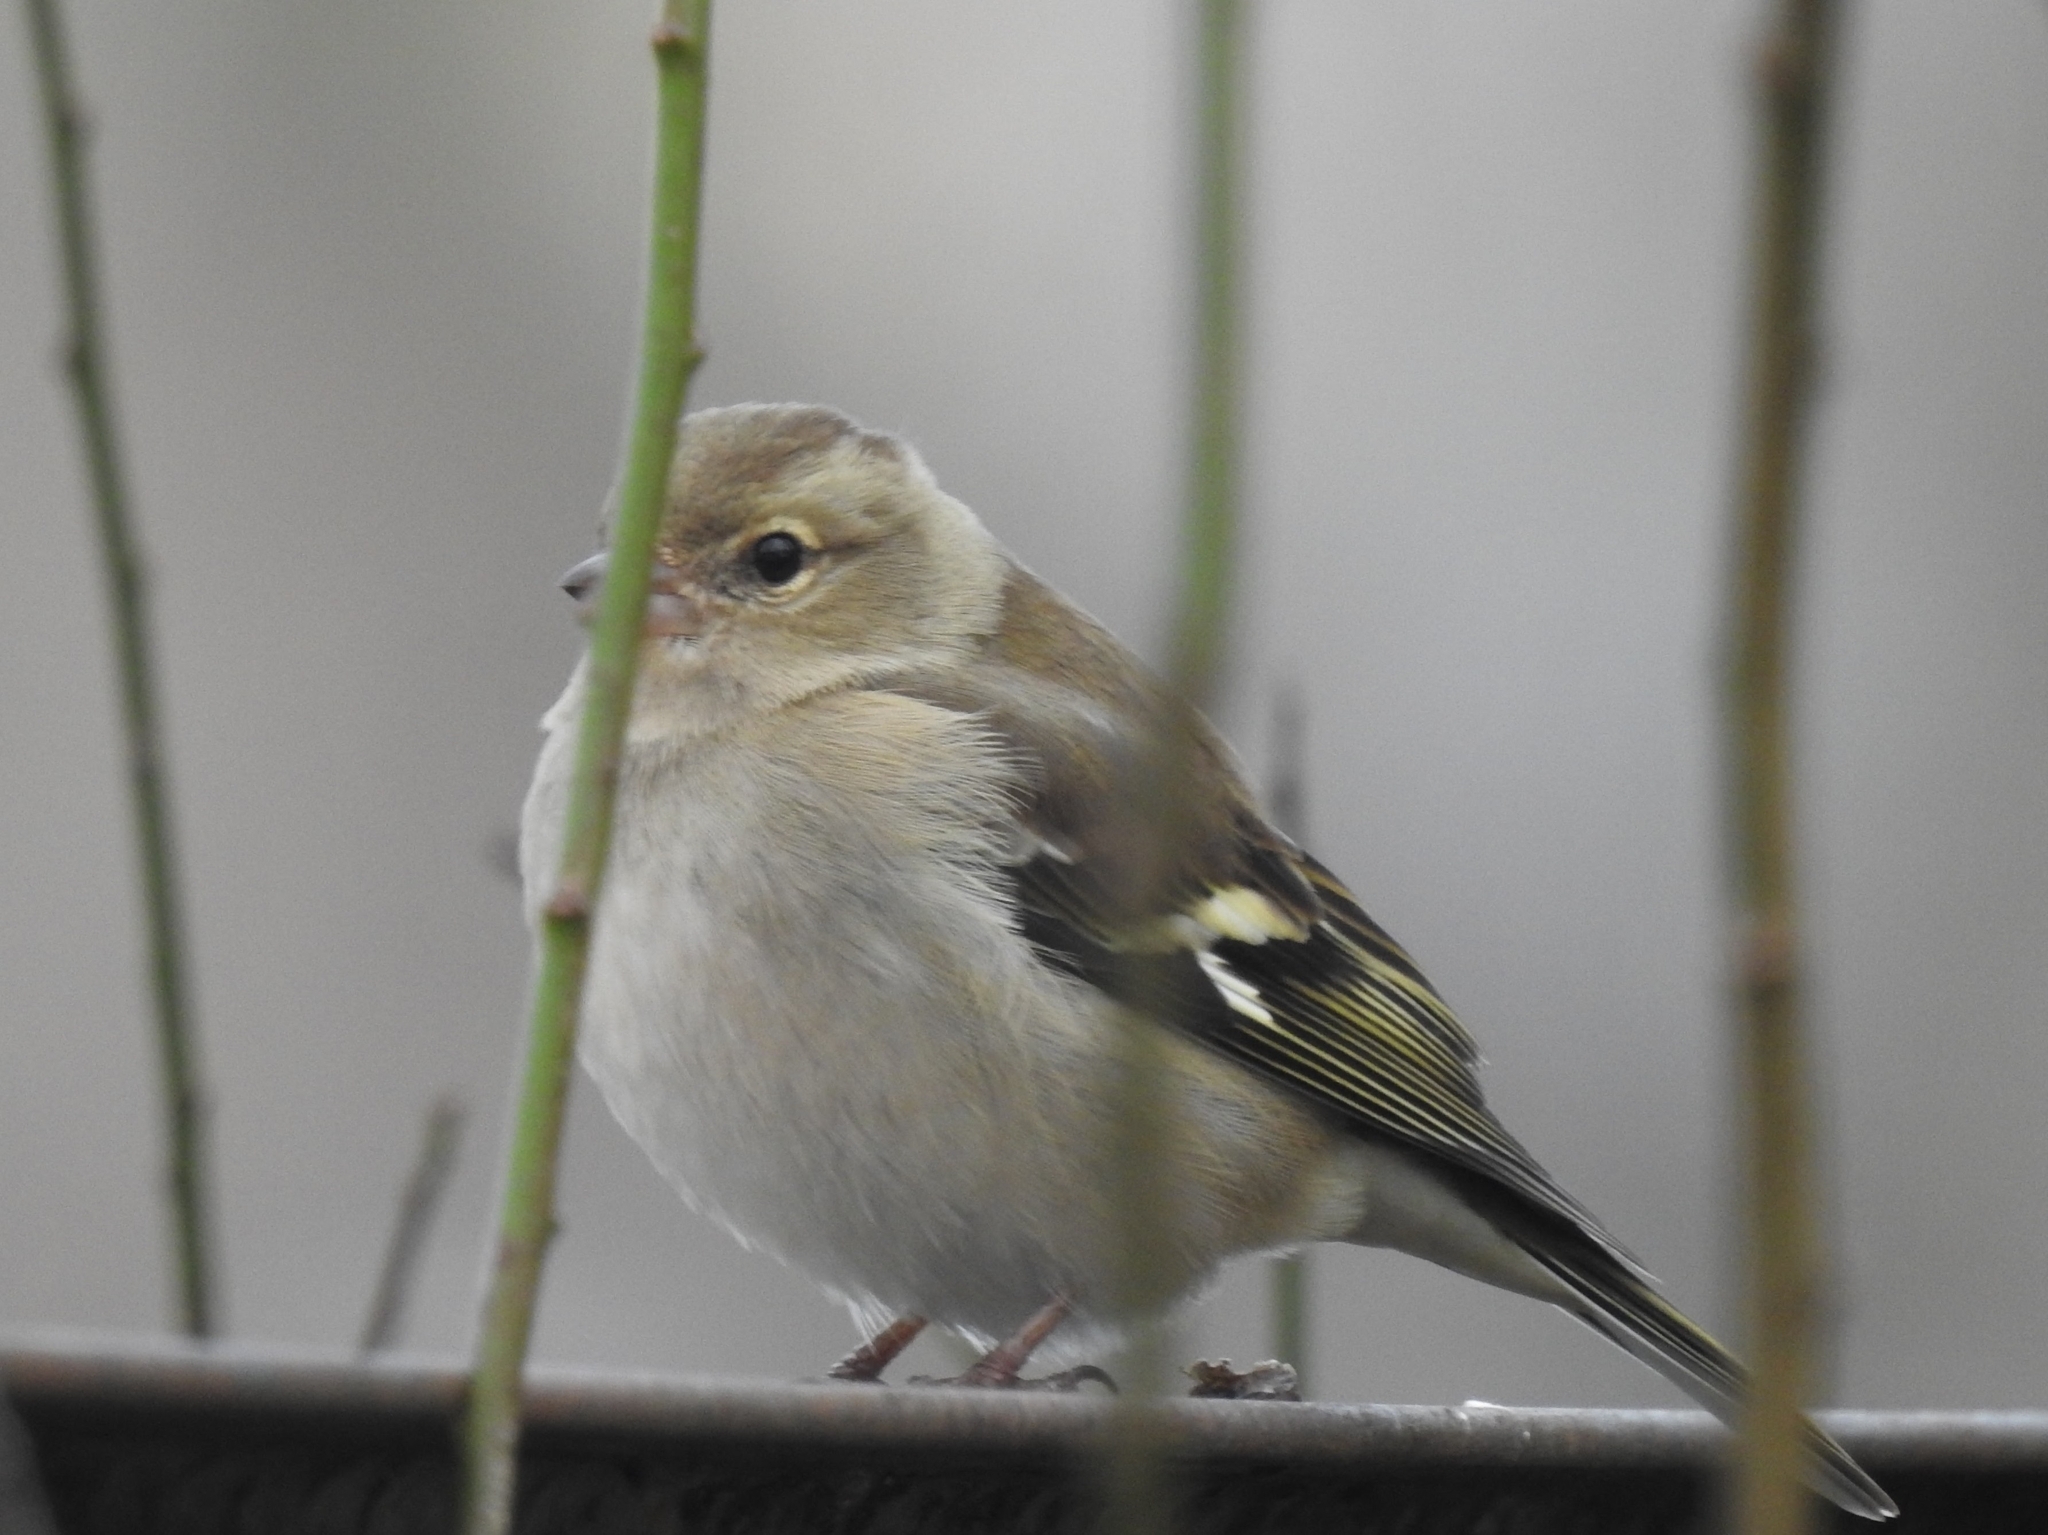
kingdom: Animalia
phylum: Chordata
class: Aves
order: Passeriformes
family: Fringillidae
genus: Fringilla
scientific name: Fringilla coelebs
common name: Common chaffinch
